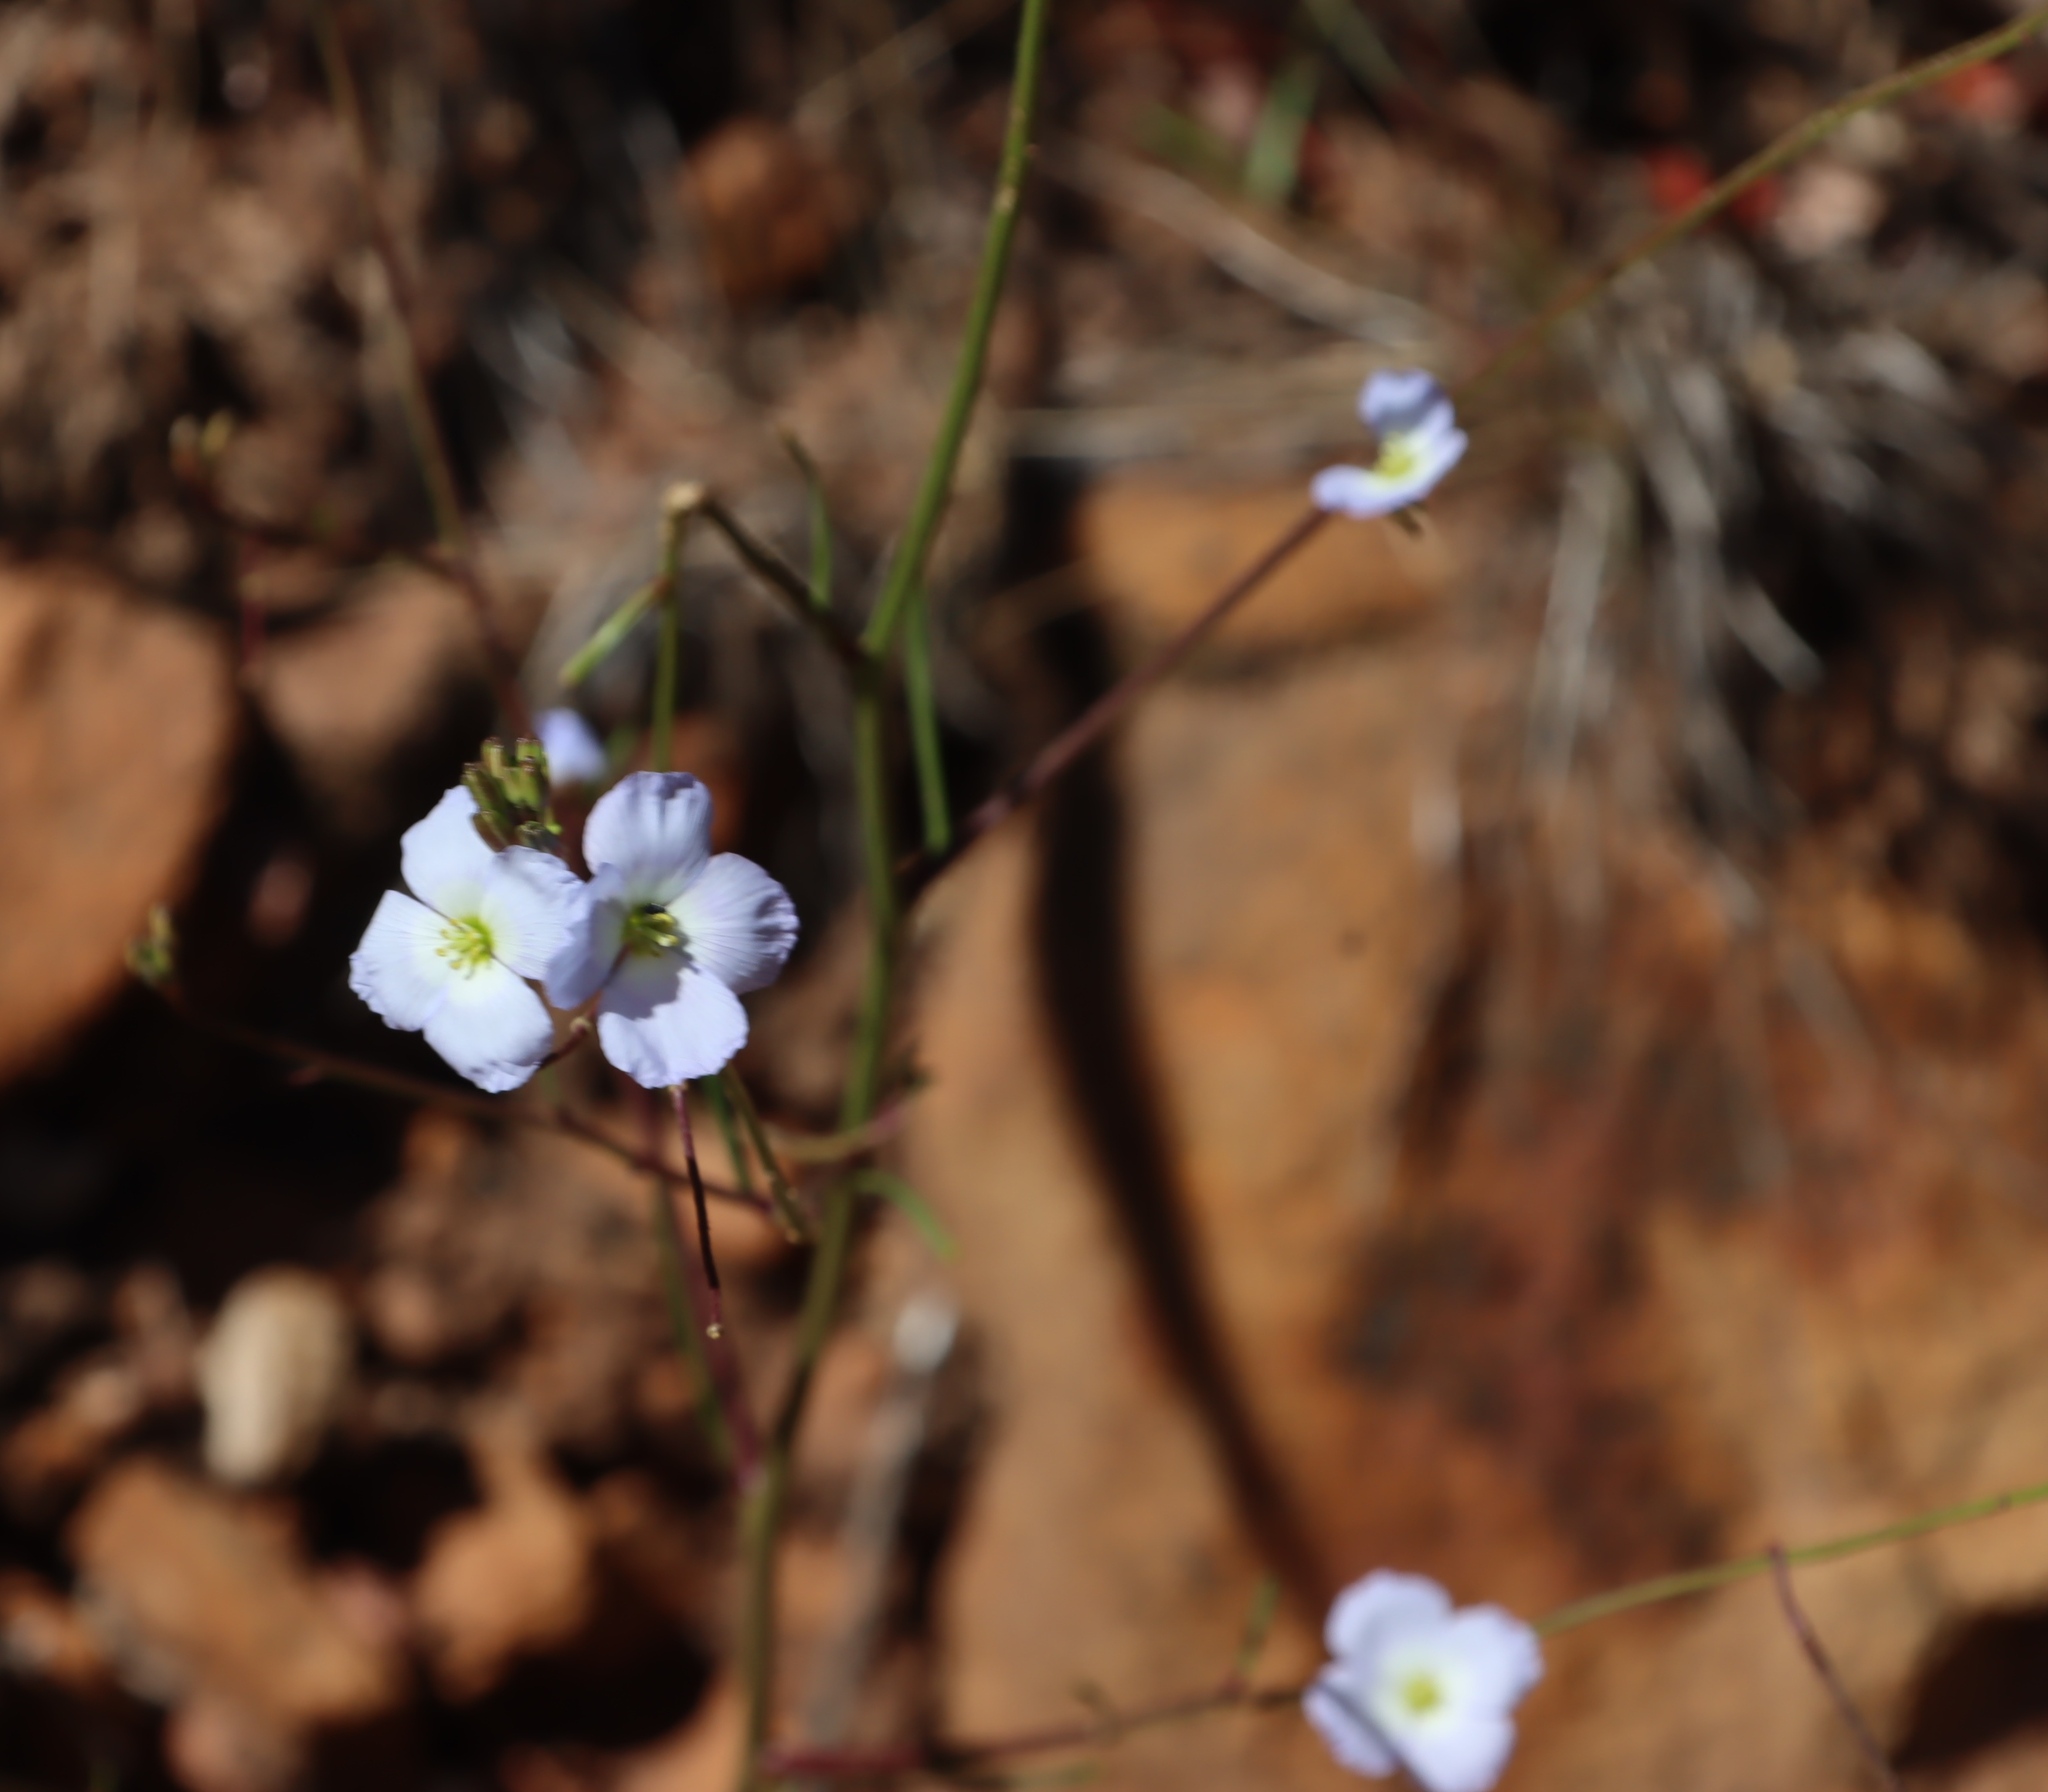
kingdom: Plantae
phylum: Tracheophyta
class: Magnoliopsida
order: Brassicales
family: Brassicaceae
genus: Heliophila
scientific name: Heliophila coronopifolia
